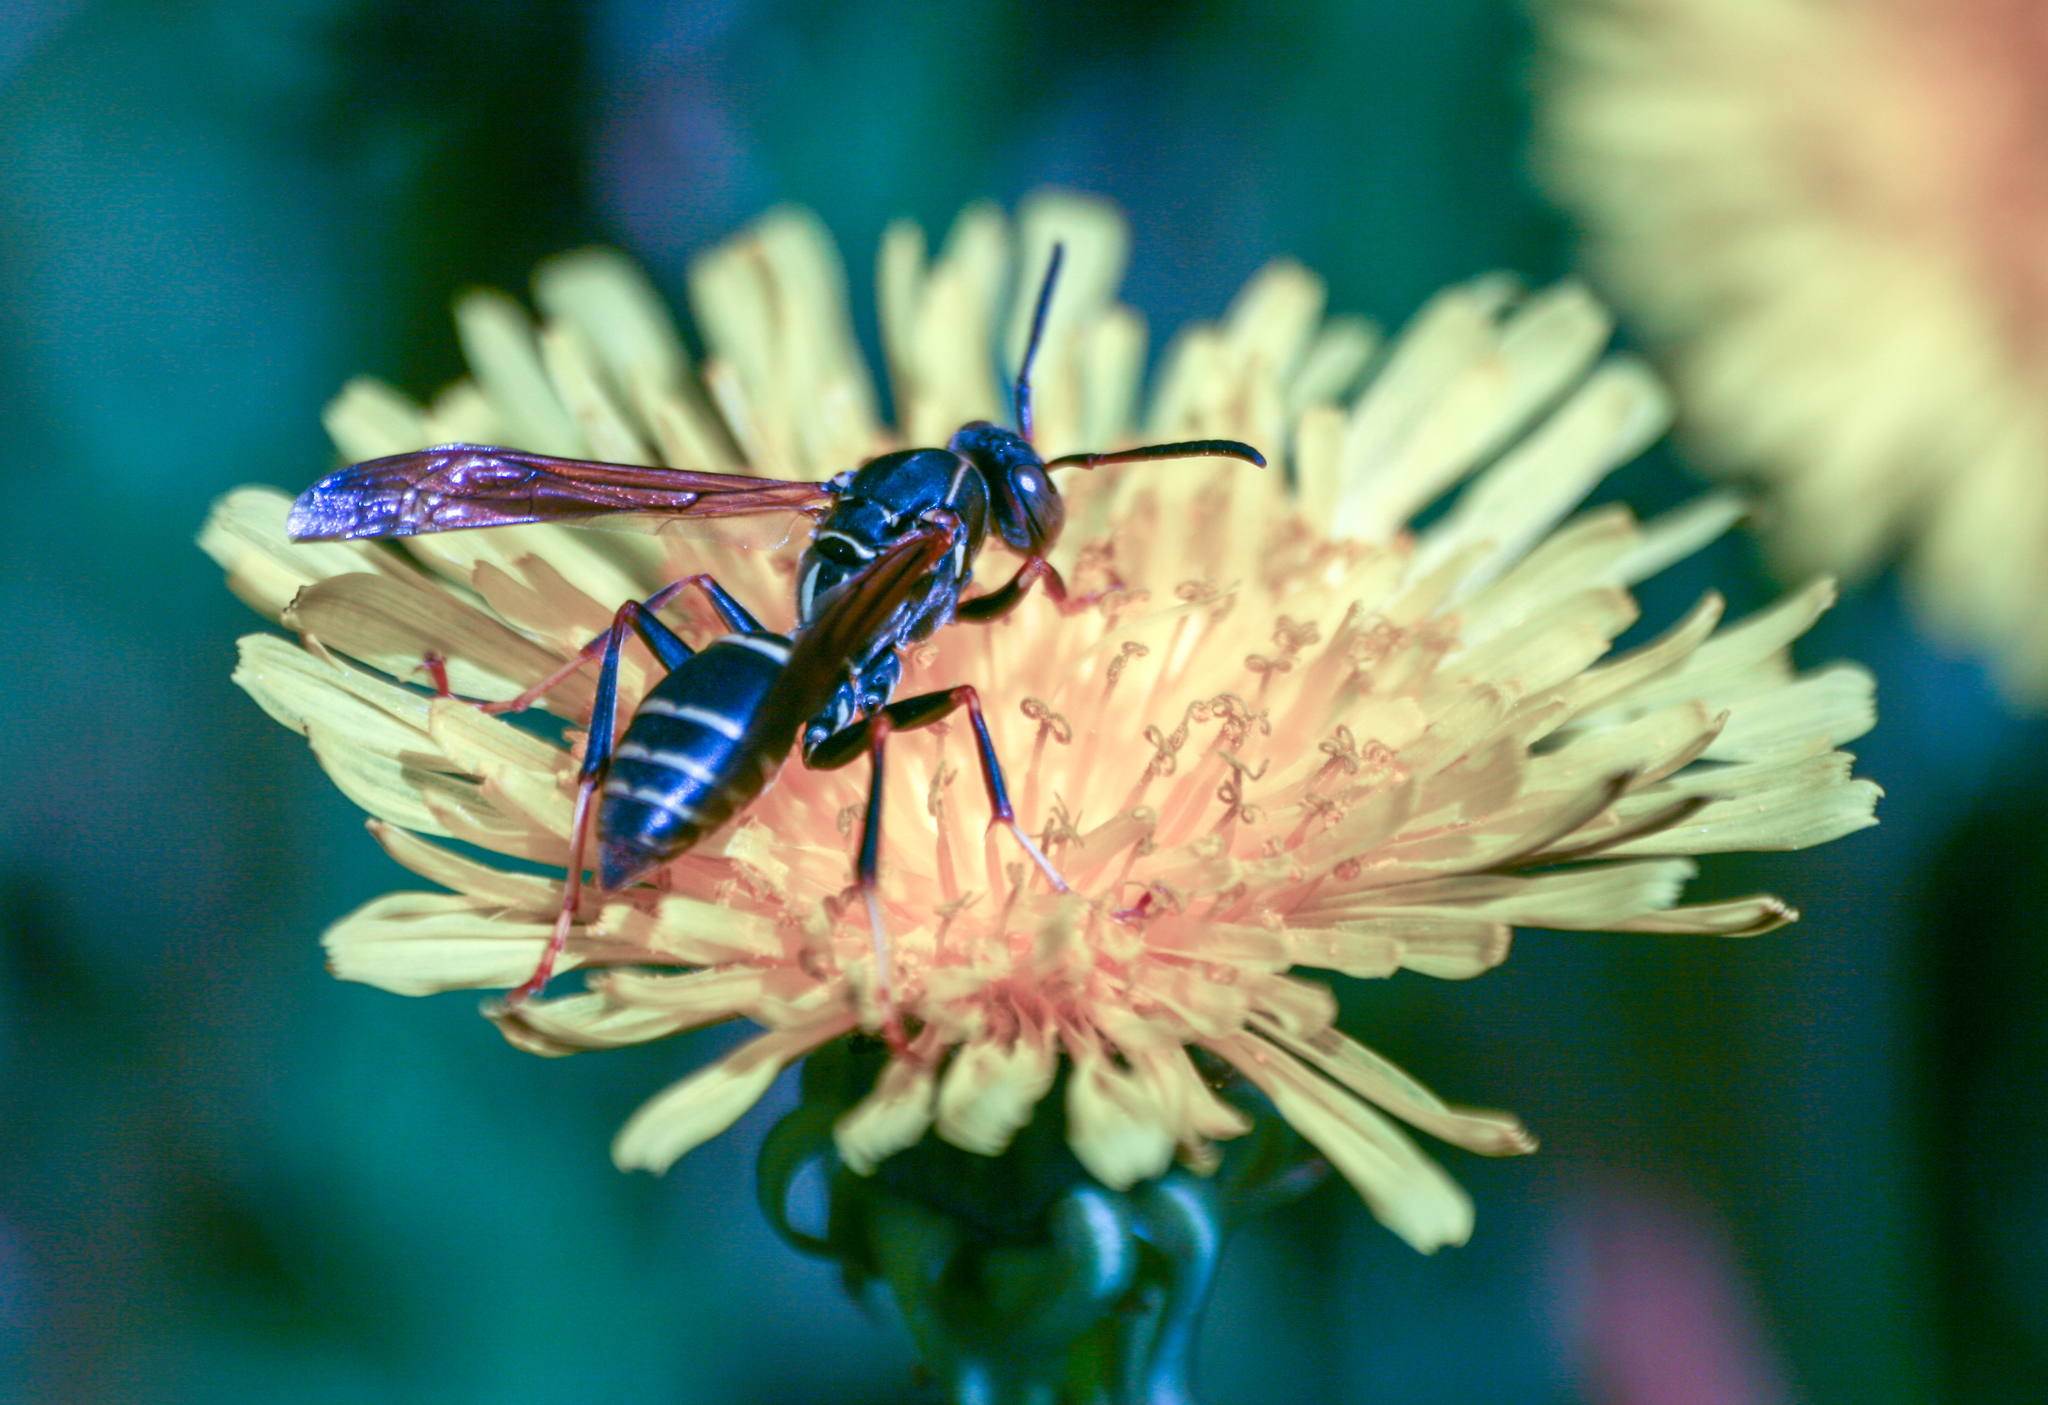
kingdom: Animalia
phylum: Arthropoda
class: Insecta
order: Hymenoptera
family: Eumenidae
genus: Polistes
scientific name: Polistes fuscatus
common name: Dark paper wasp
